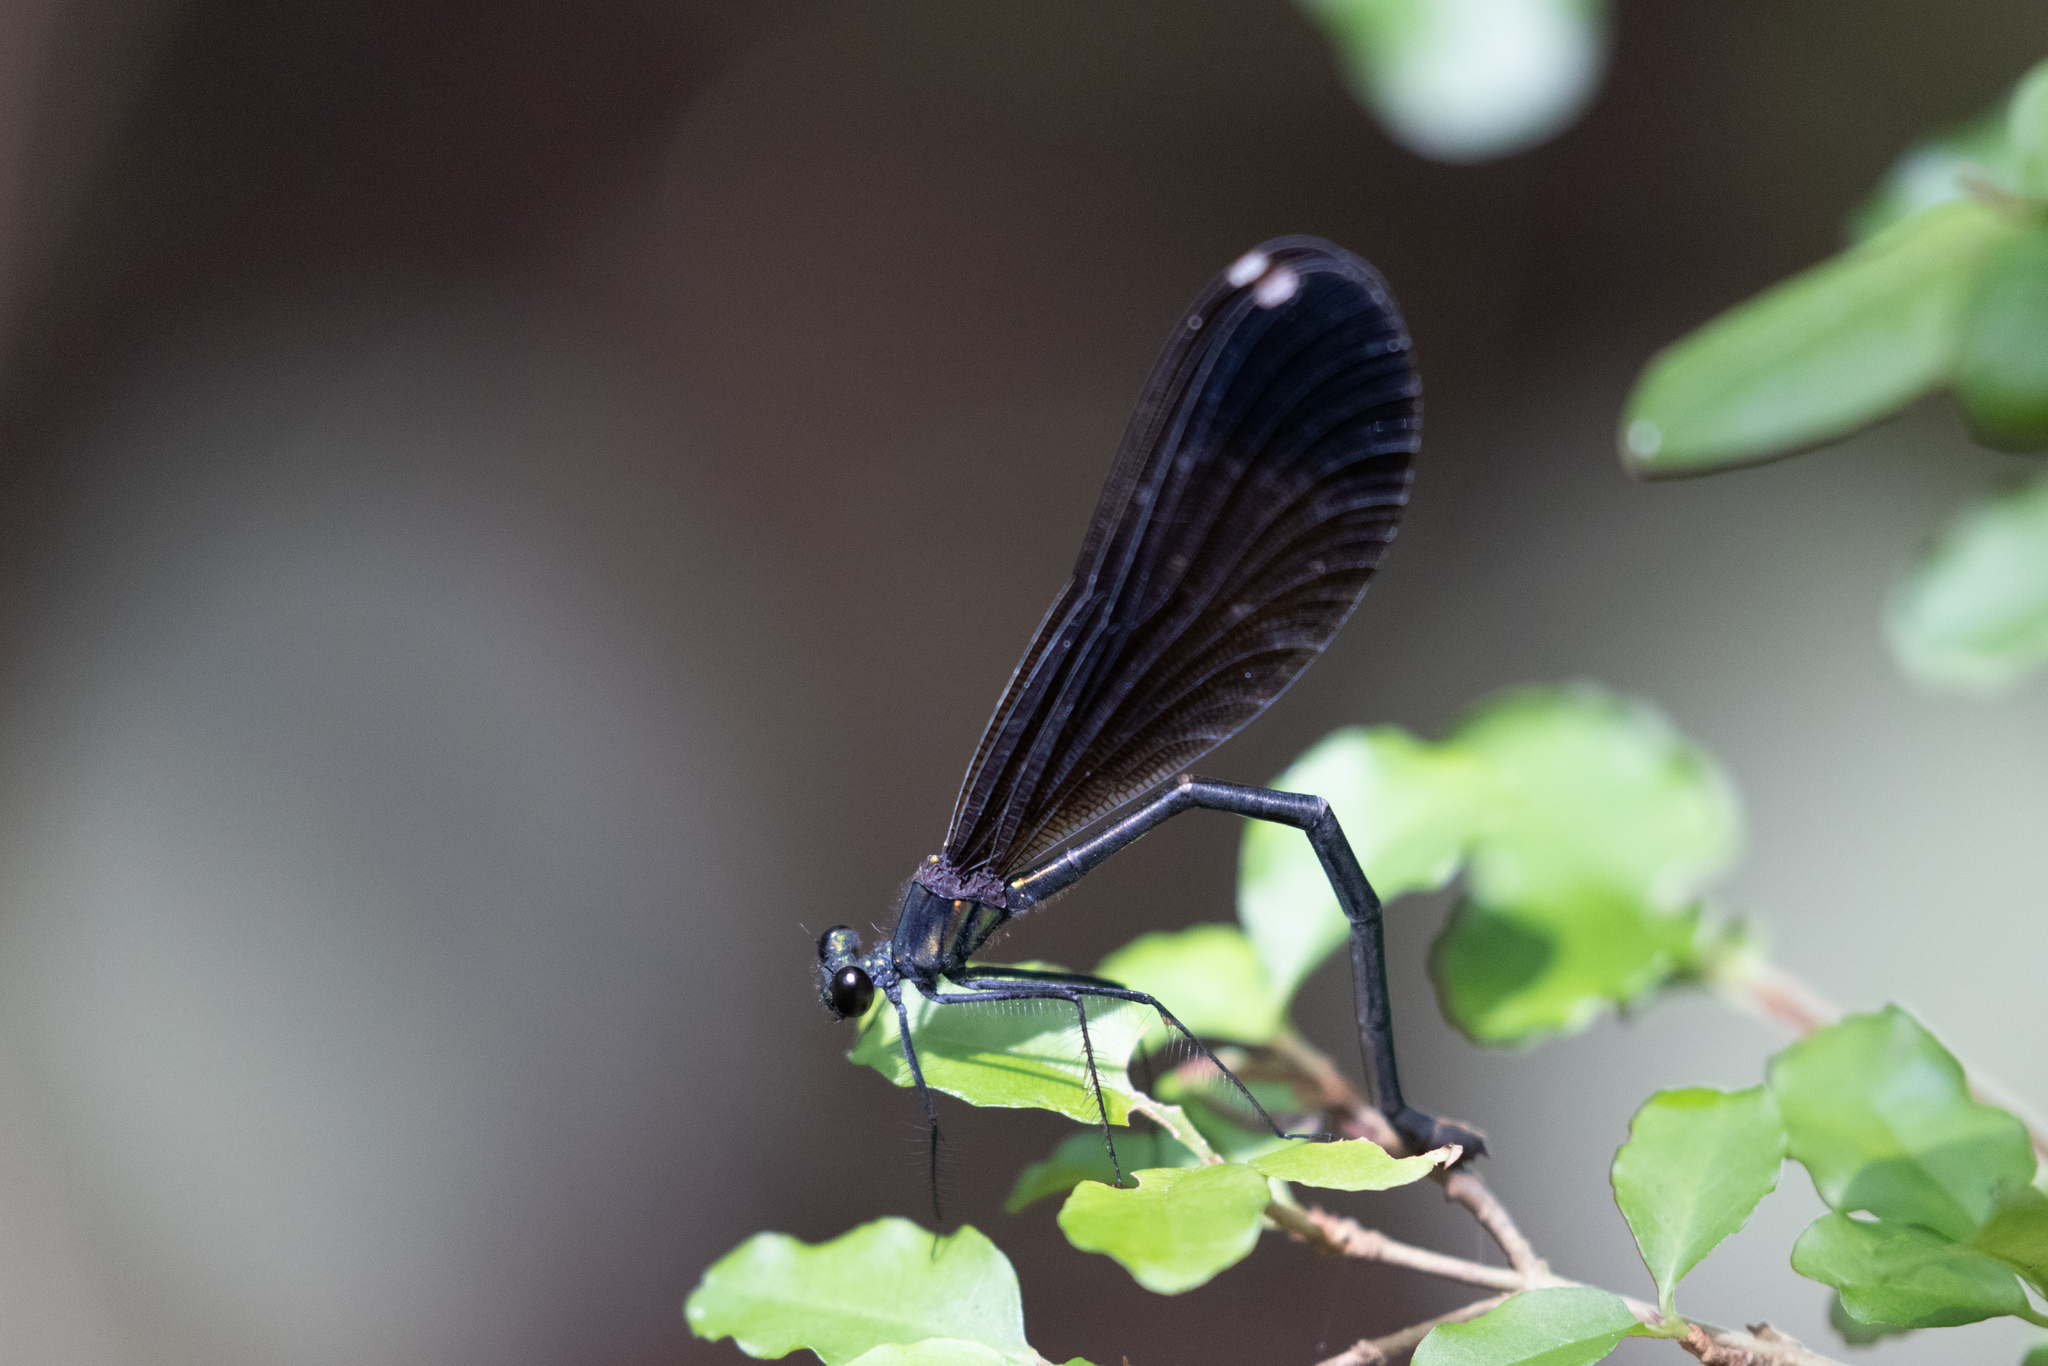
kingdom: Animalia
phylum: Arthropoda
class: Insecta
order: Odonata
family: Calopterygidae
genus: Calopteryx
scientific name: Calopteryx maculata
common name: Ebony jewelwing
